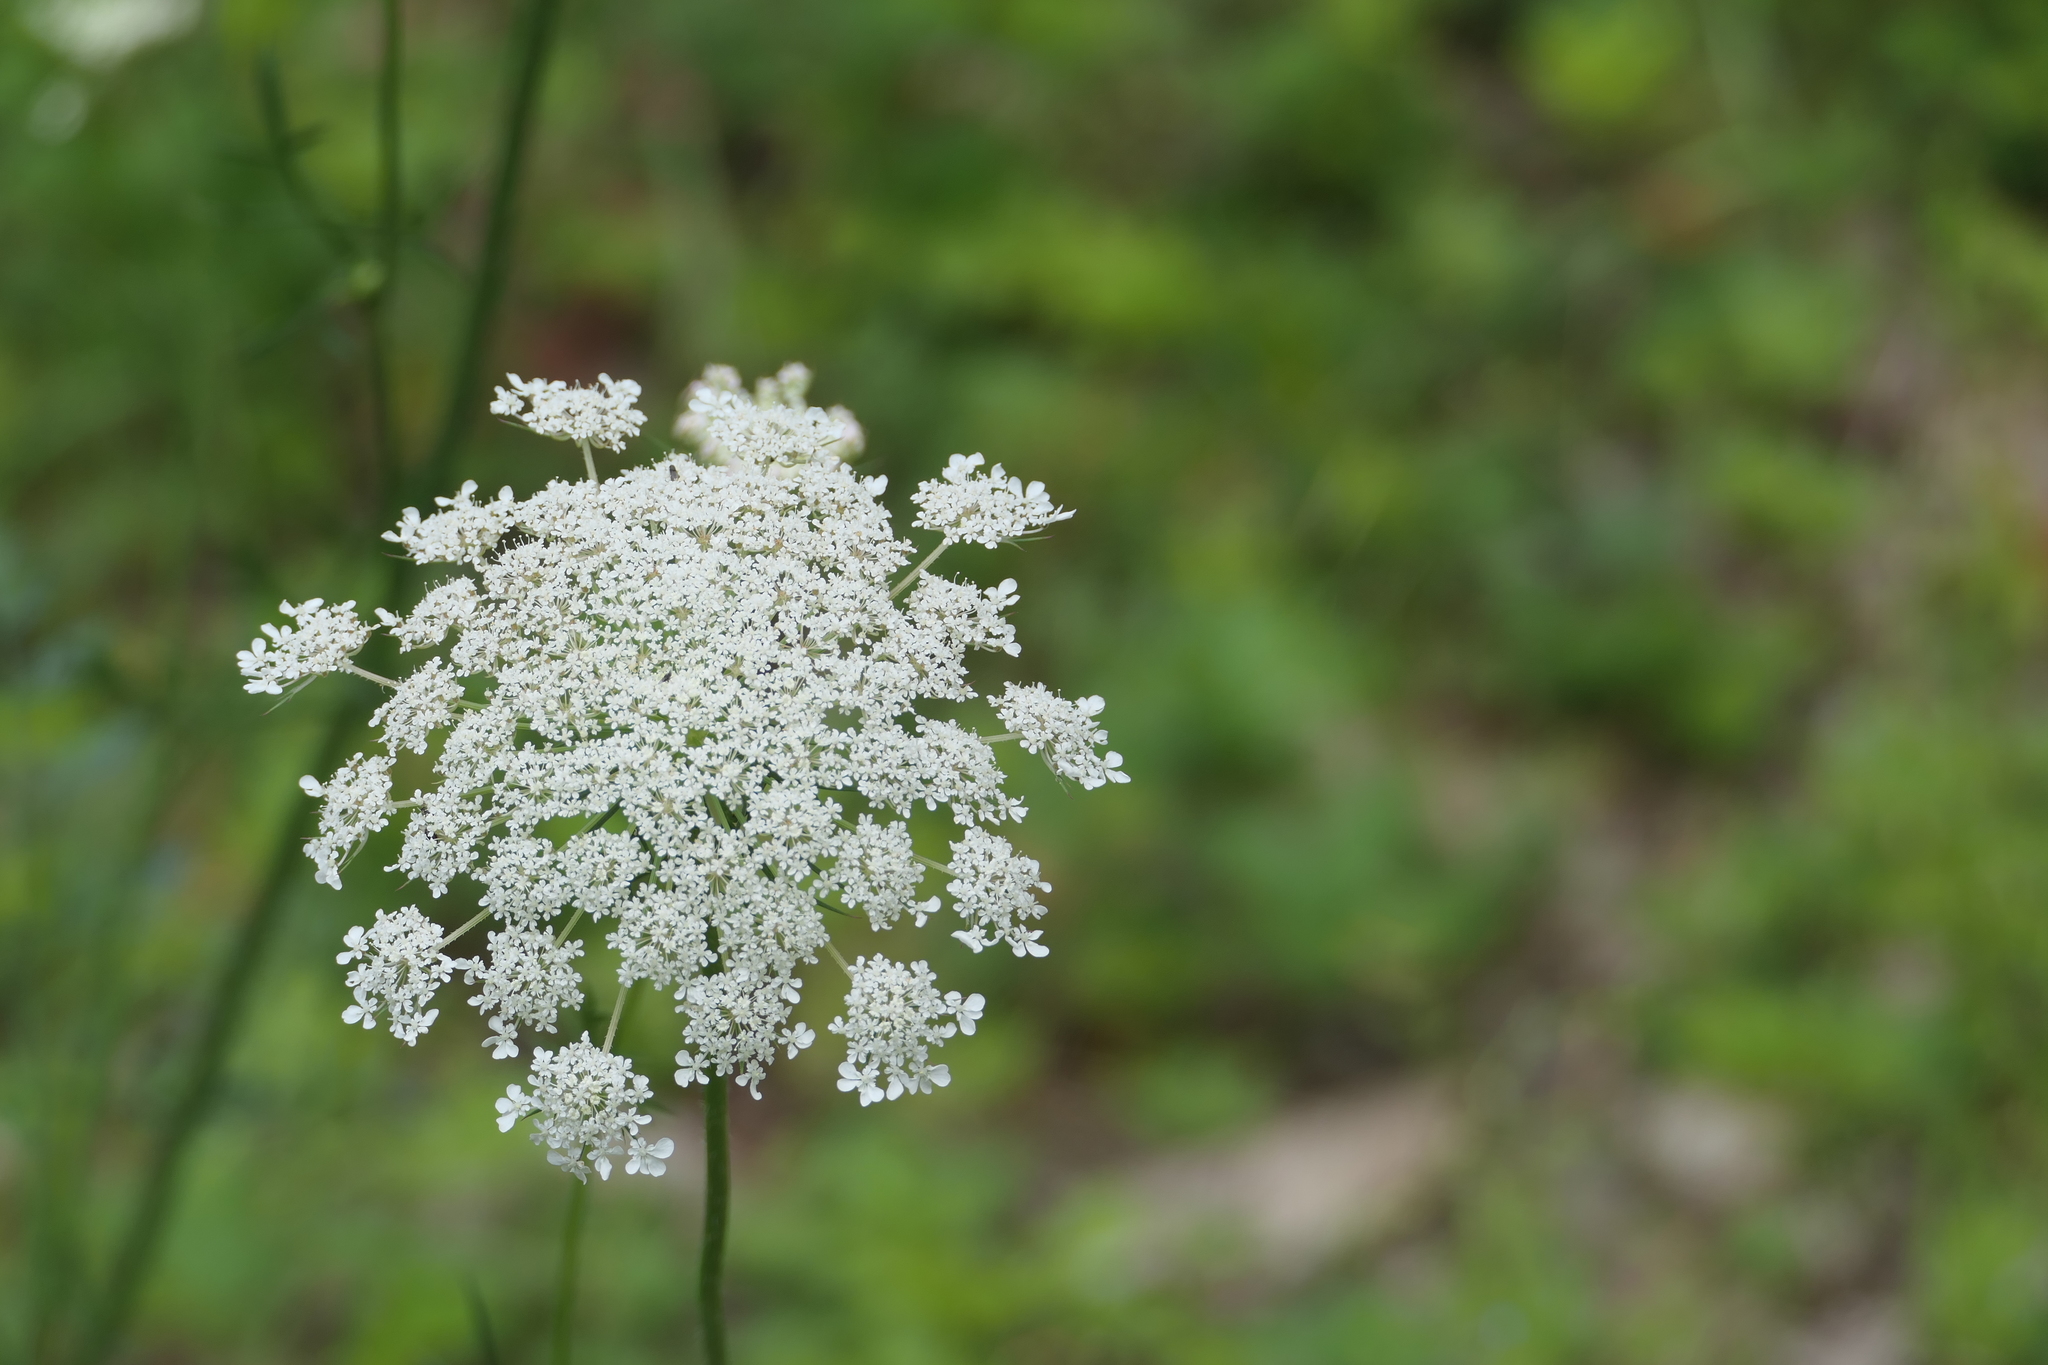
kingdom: Plantae
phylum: Tracheophyta
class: Magnoliopsida
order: Apiales
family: Apiaceae
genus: Daucus
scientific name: Daucus carota
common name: Wild carrot
